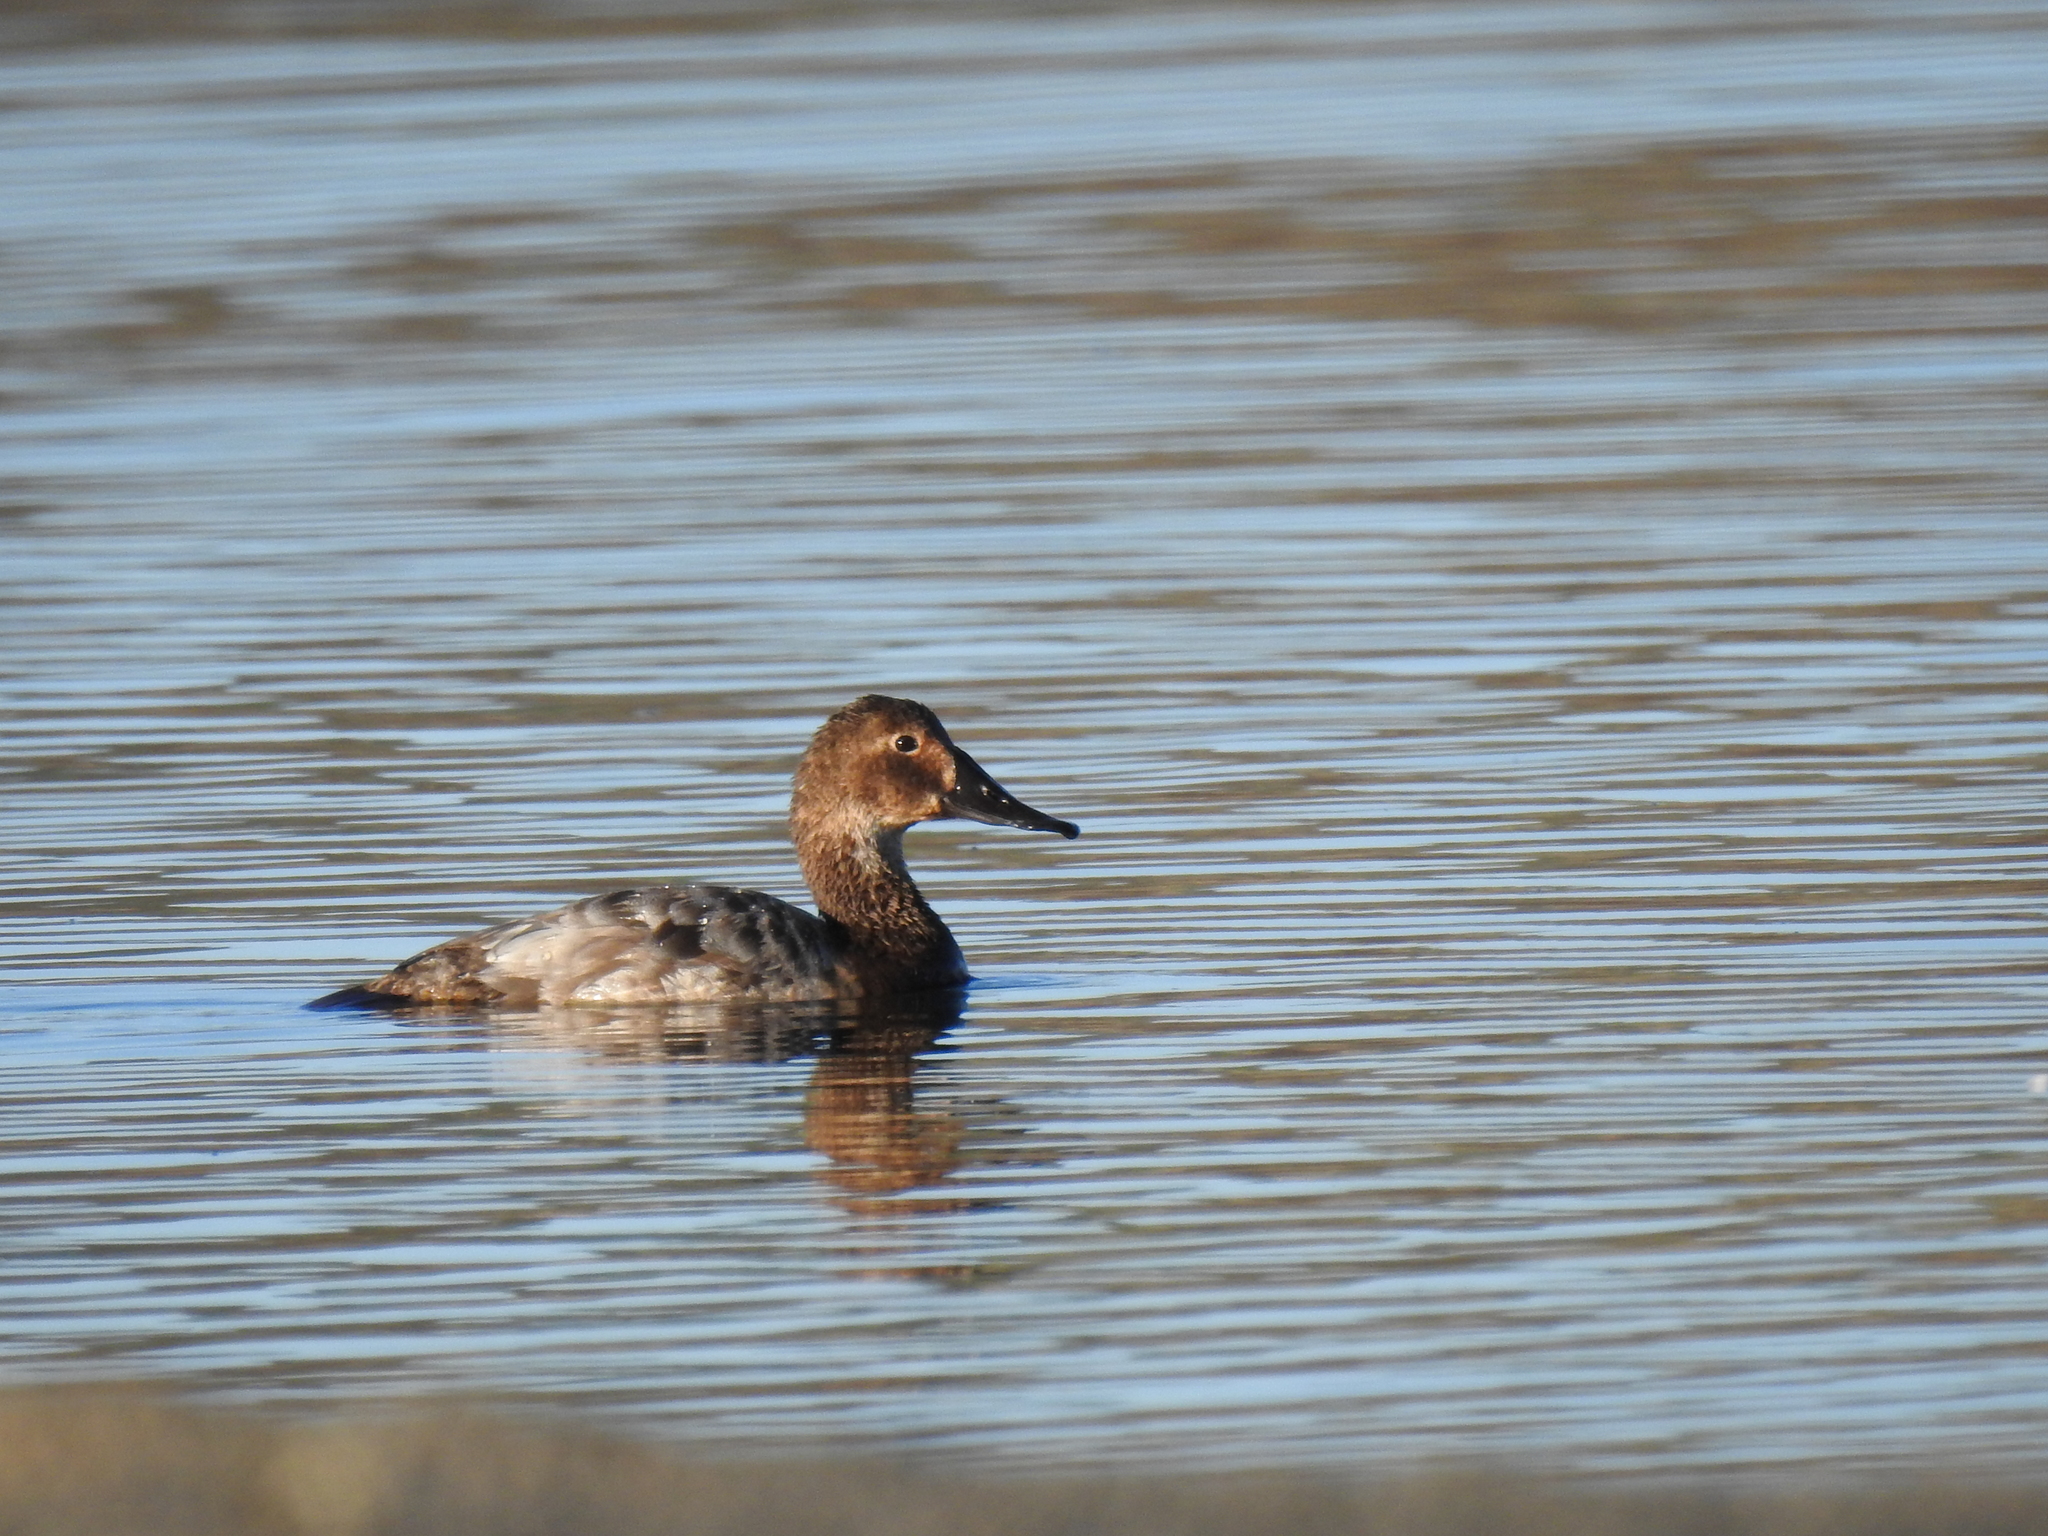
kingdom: Animalia
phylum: Chordata
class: Aves
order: Anseriformes
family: Anatidae
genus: Aythya
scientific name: Aythya valisineria
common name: Canvasback
